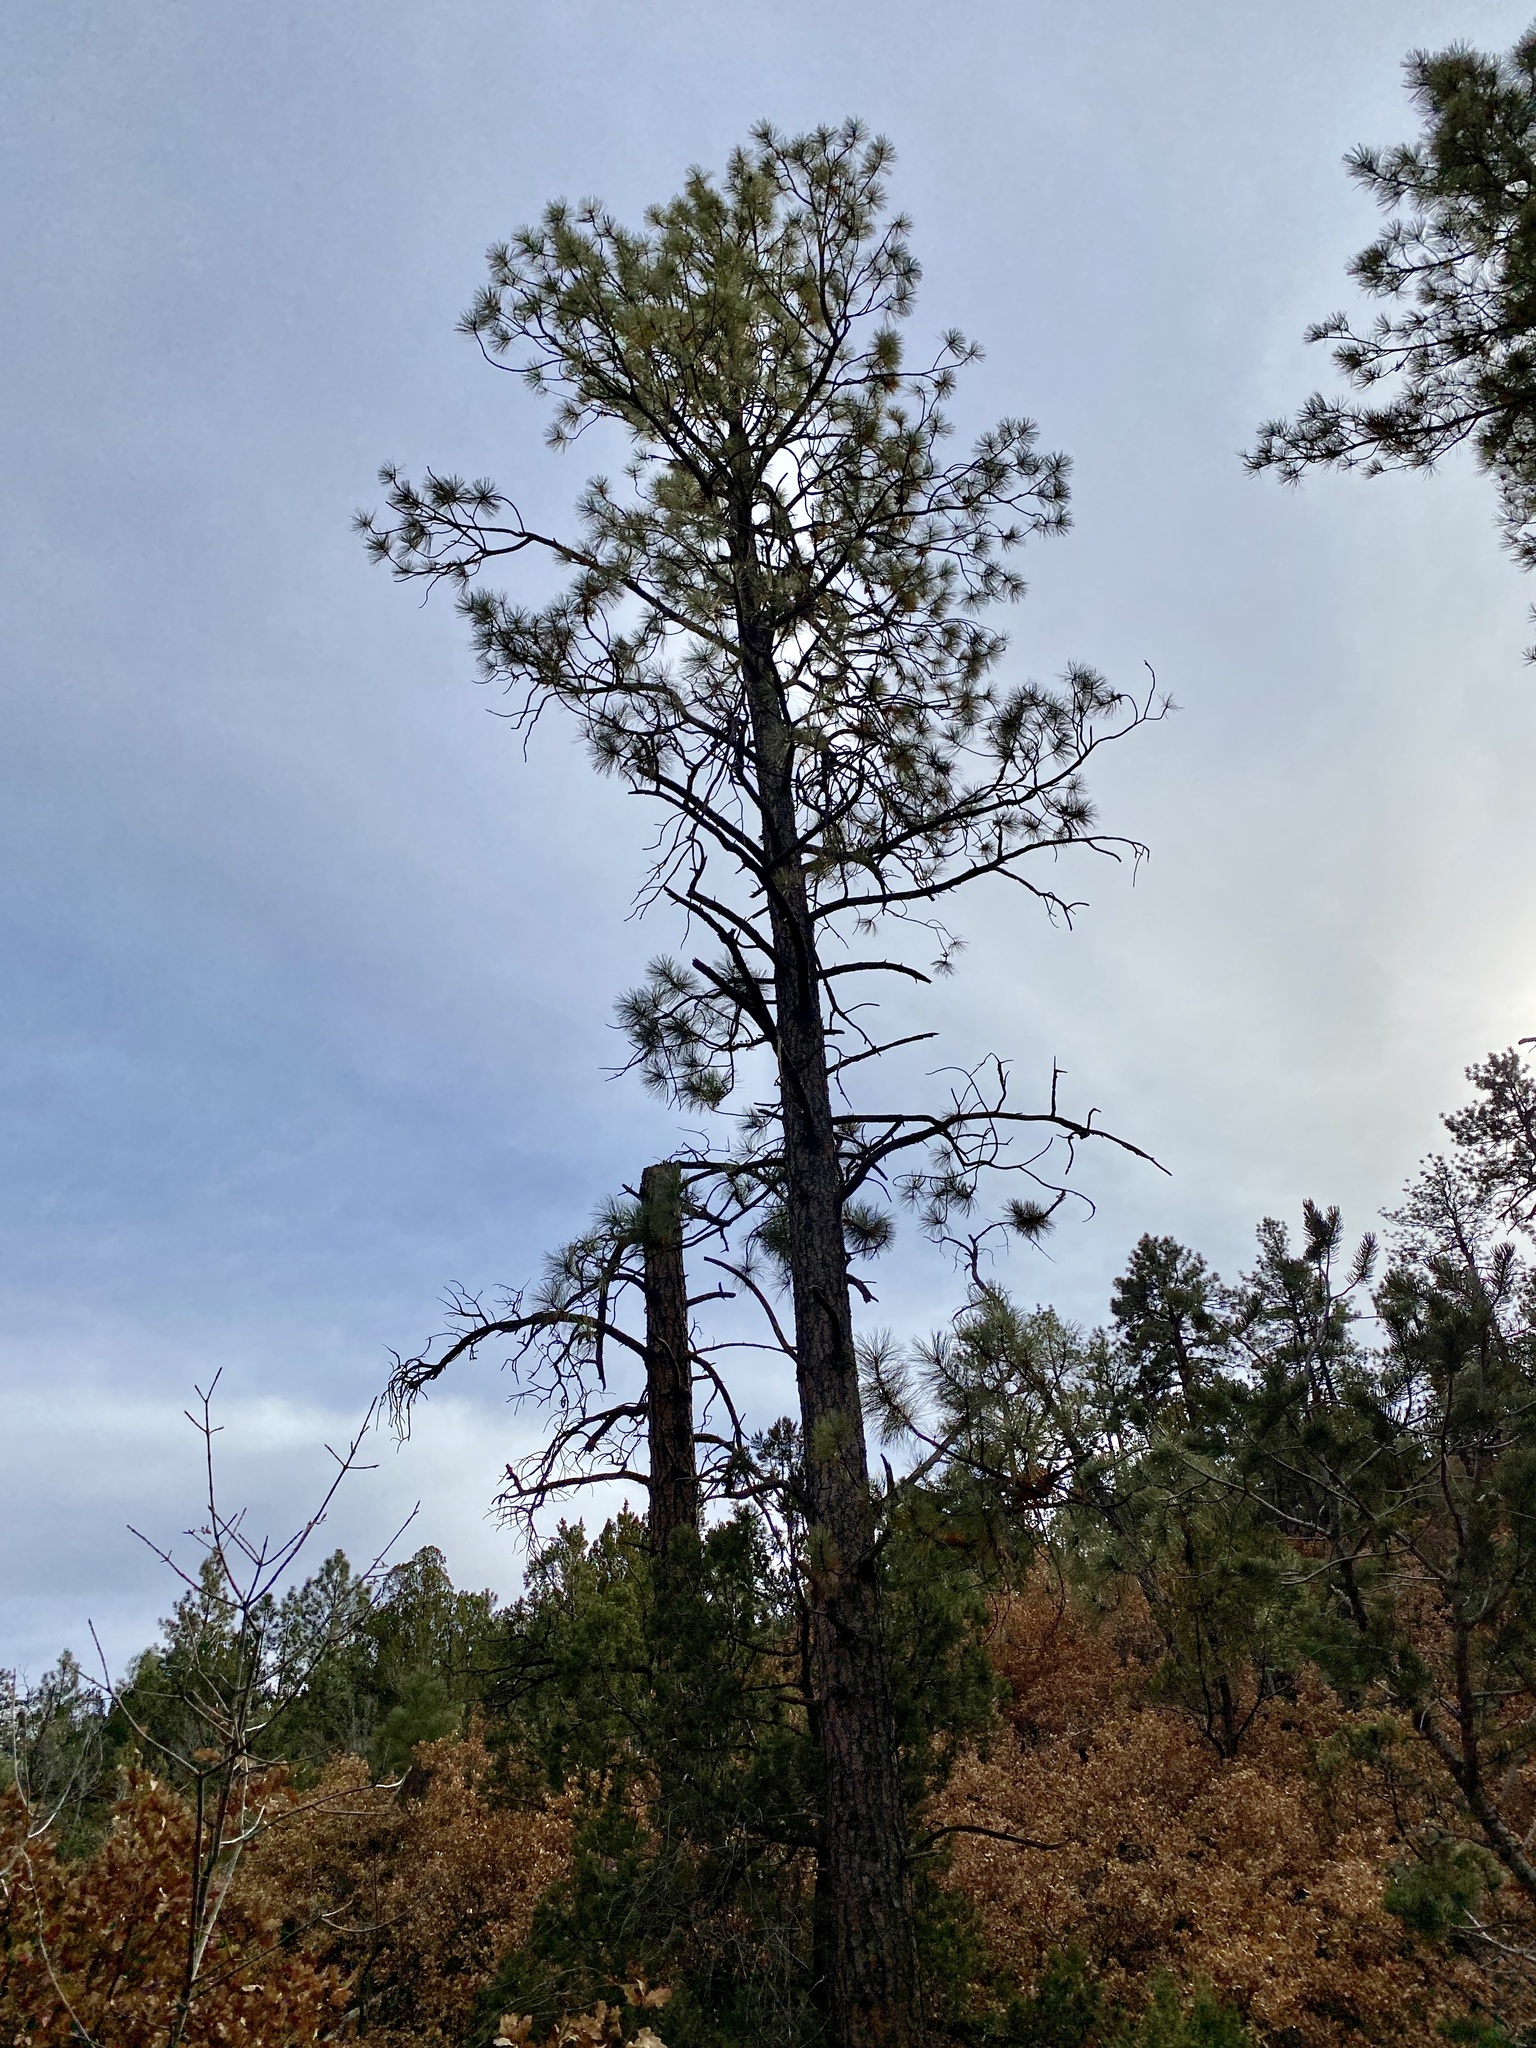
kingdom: Plantae
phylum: Tracheophyta
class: Pinopsida
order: Pinales
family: Pinaceae
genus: Pinus
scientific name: Pinus ponderosa
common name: Western yellow-pine
